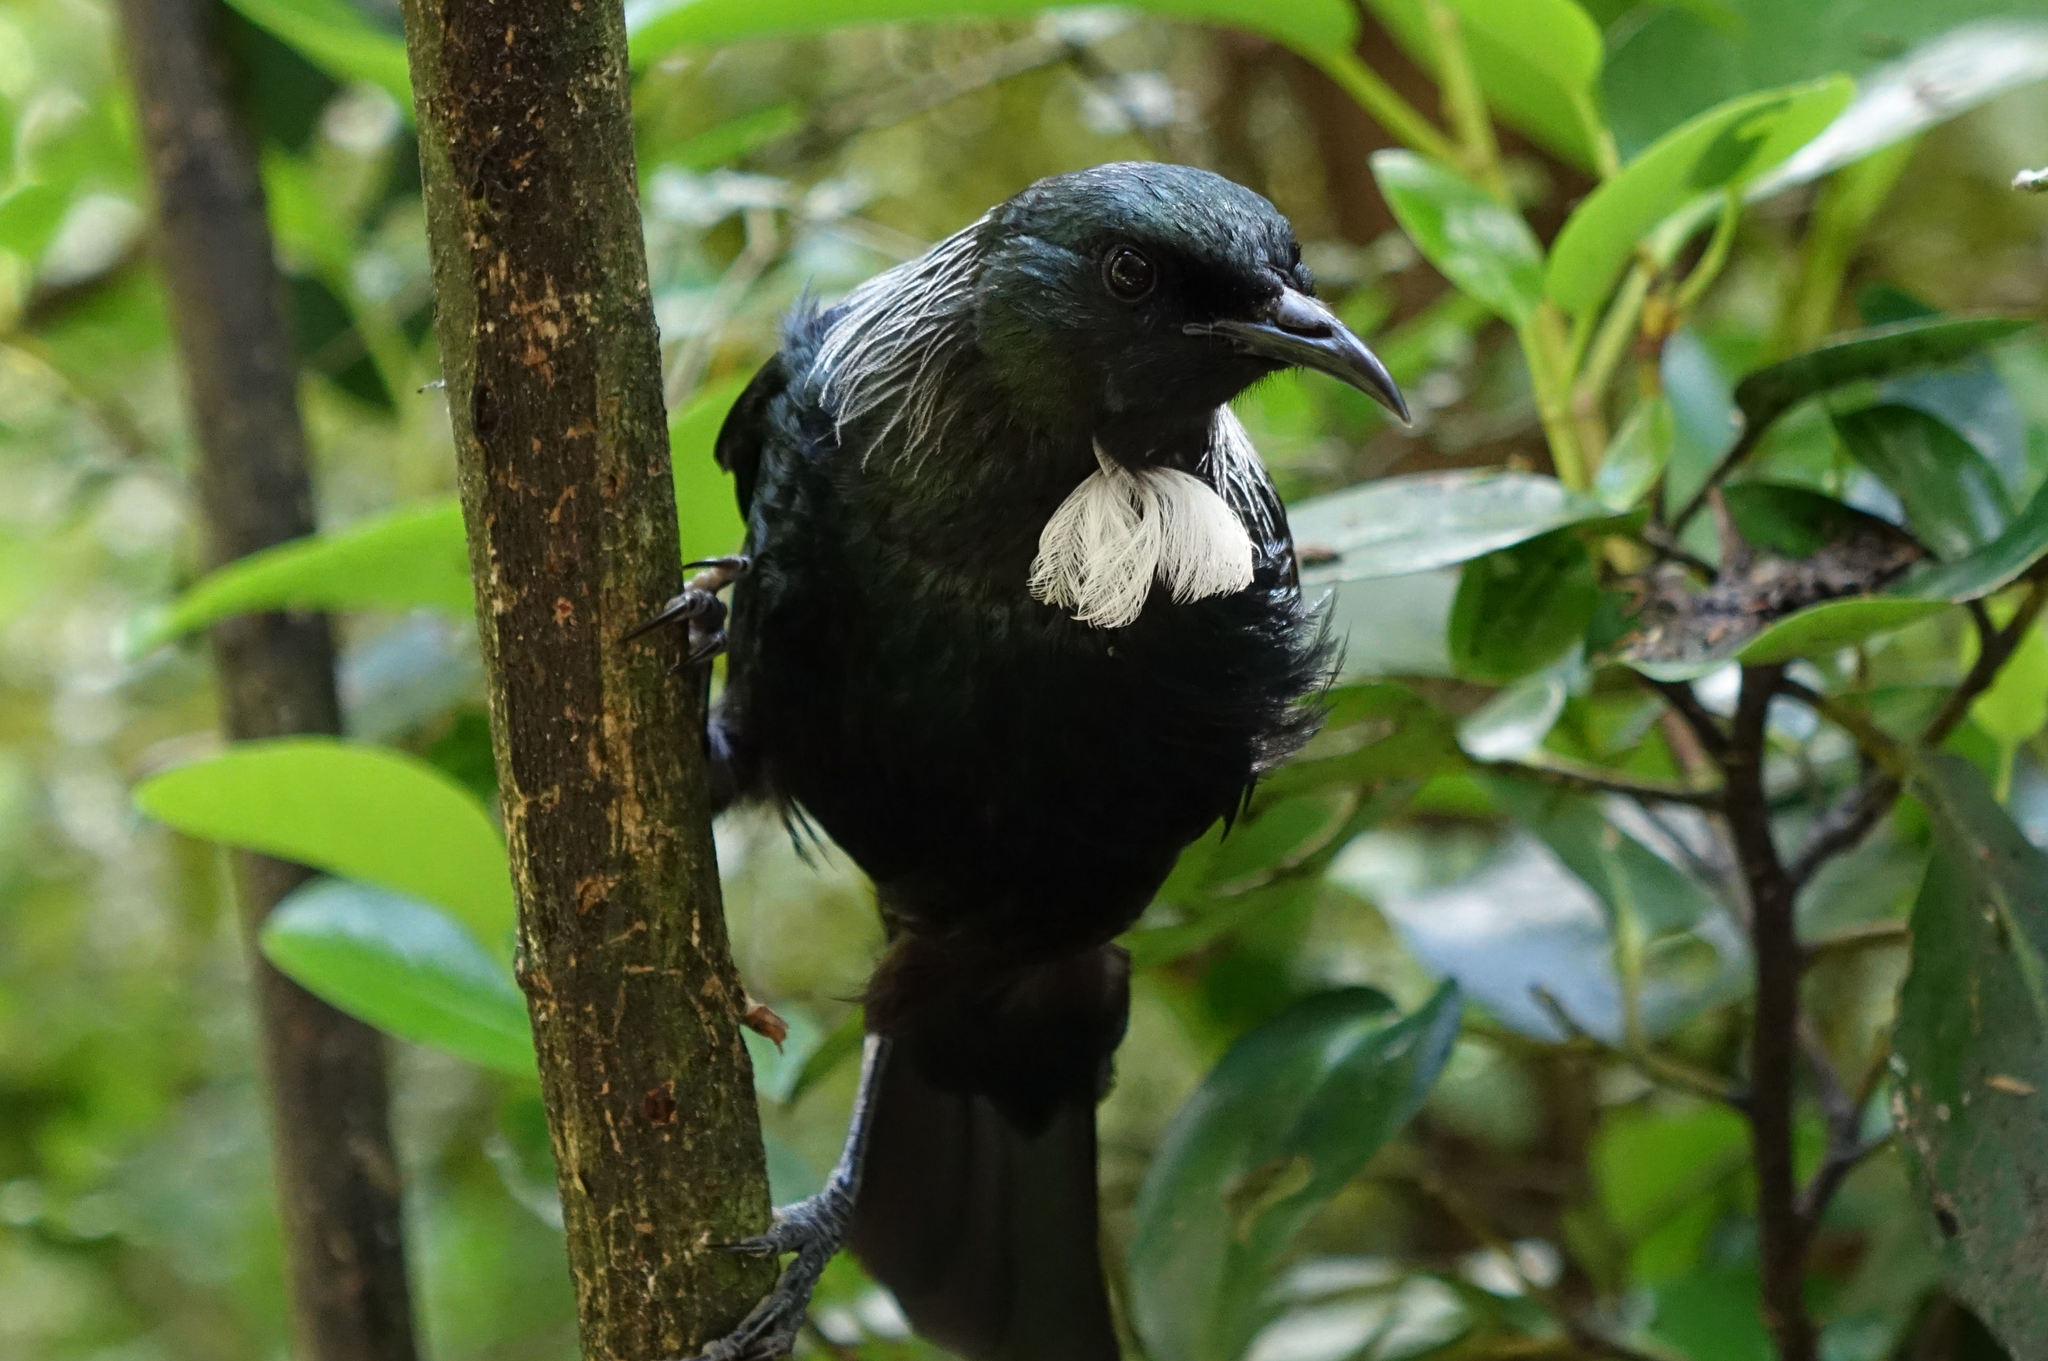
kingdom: Animalia
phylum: Chordata
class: Aves
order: Passeriformes
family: Meliphagidae
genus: Prosthemadera
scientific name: Prosthemadera novaeseelandiae
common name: Tui
